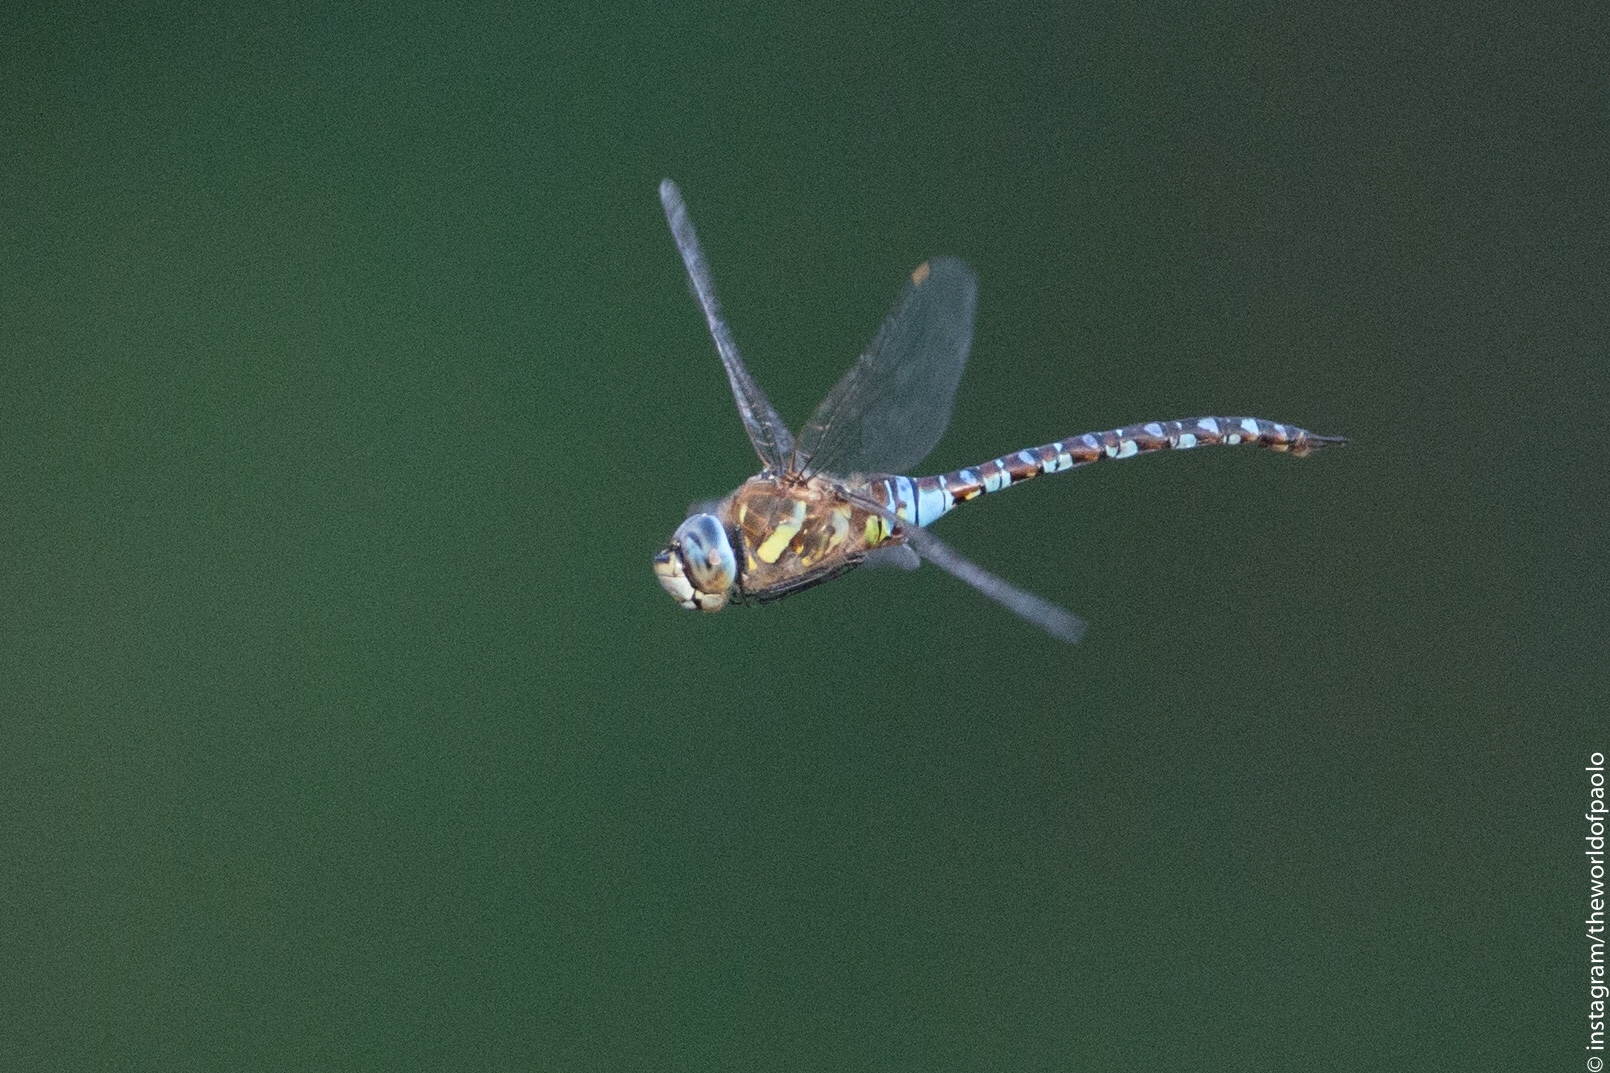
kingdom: Animalia
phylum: Arthropoda
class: Insecta
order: Odonata
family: Aeshnidae
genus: Aeshna
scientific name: Aeshna mixta
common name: Migrant hawker
